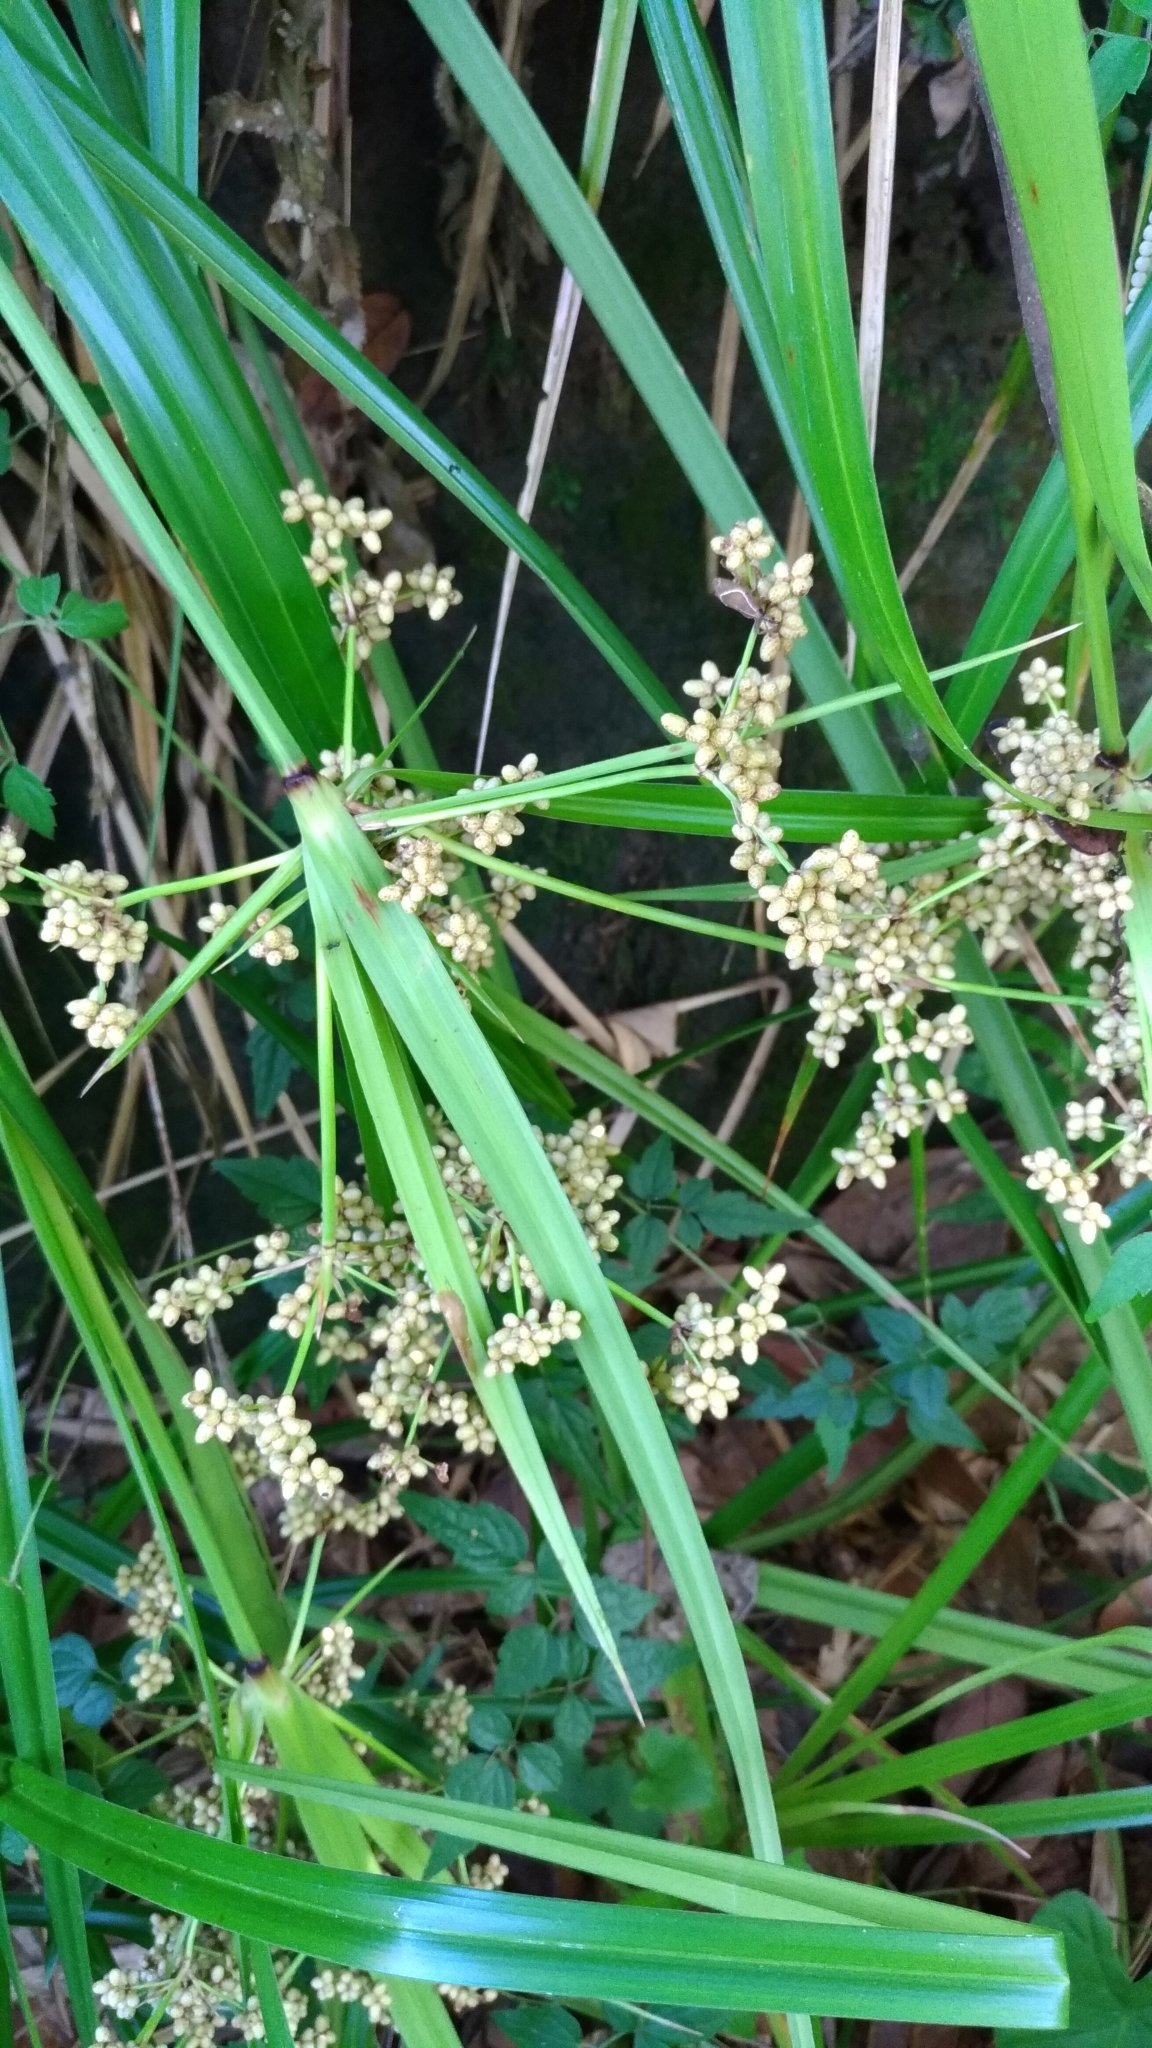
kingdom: Plantae
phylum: Tracheophyta
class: Liliopsida
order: Poales
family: Cyperaceae
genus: Scirpus
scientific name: Scirpus ternatanus
